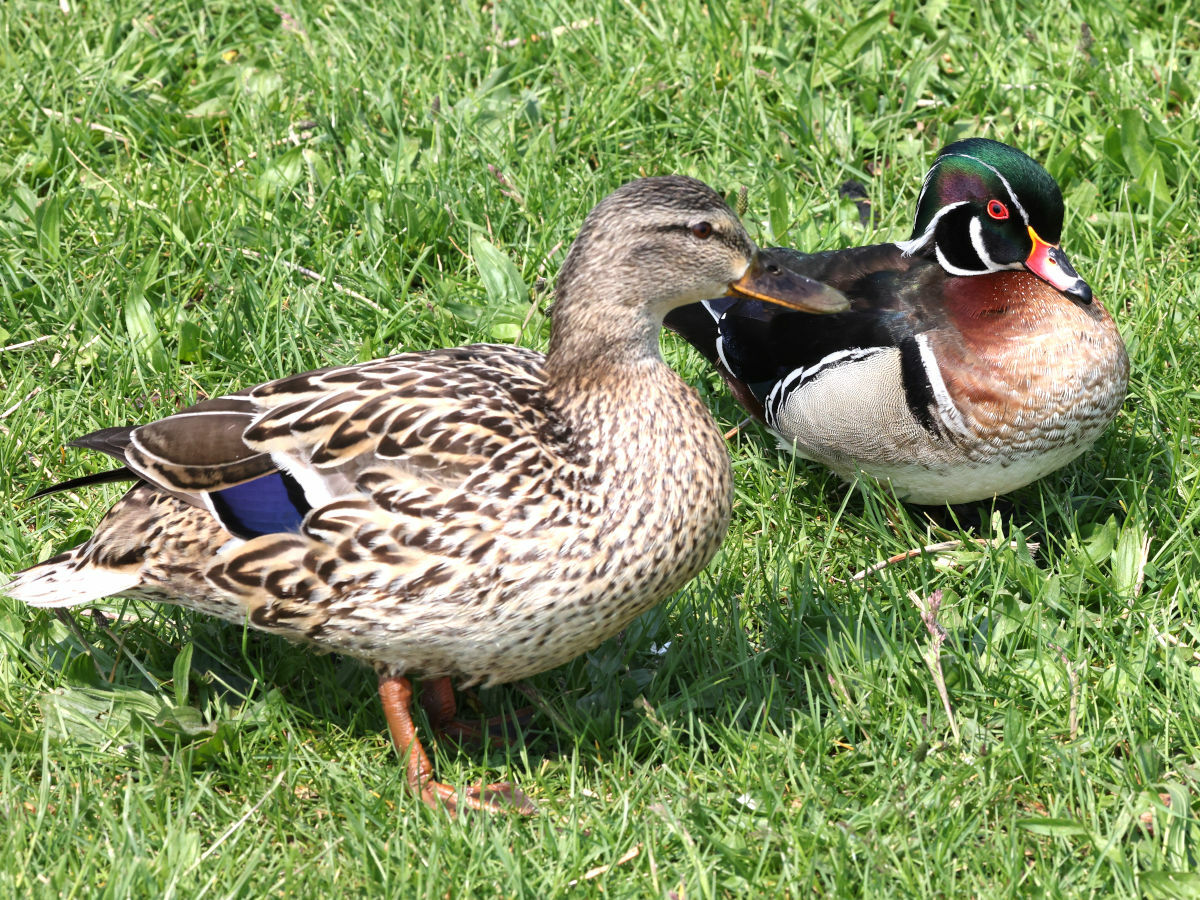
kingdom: Animalia
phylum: Chordata
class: Aves
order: Anseriformes
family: Anatidae
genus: Anas
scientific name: Anas platyrhynchos
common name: Mallard
